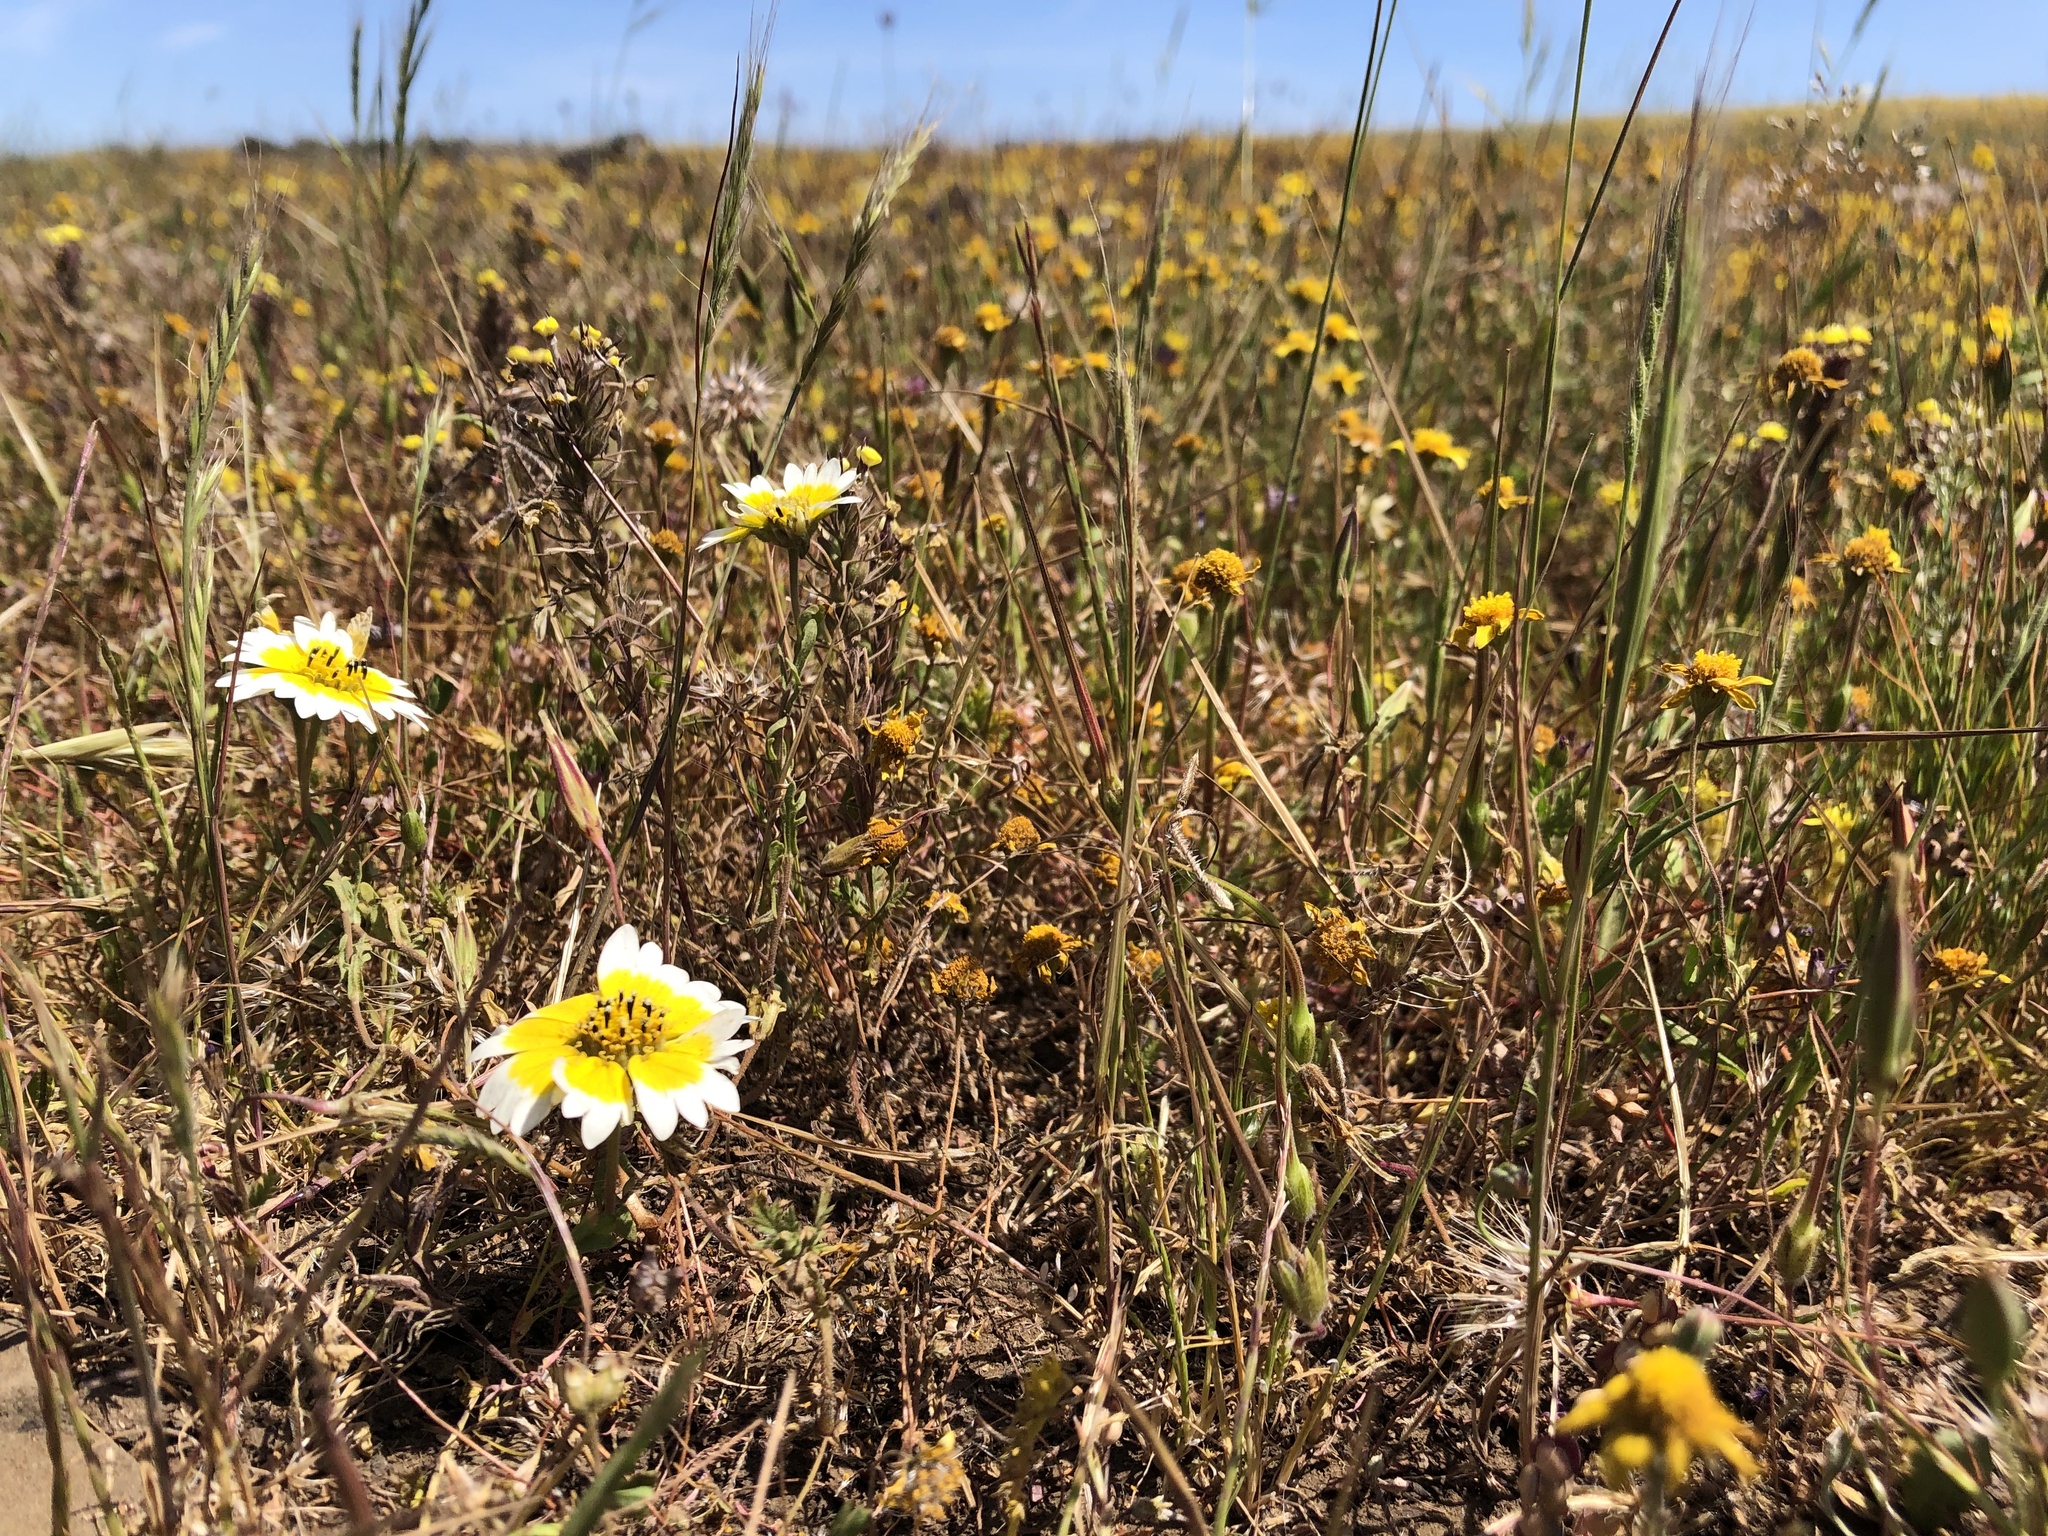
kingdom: Plantae
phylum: Tracheophyta
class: Magnoliopsida
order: Asterales
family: Asteraceae
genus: Layia
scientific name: Layia fremontii
